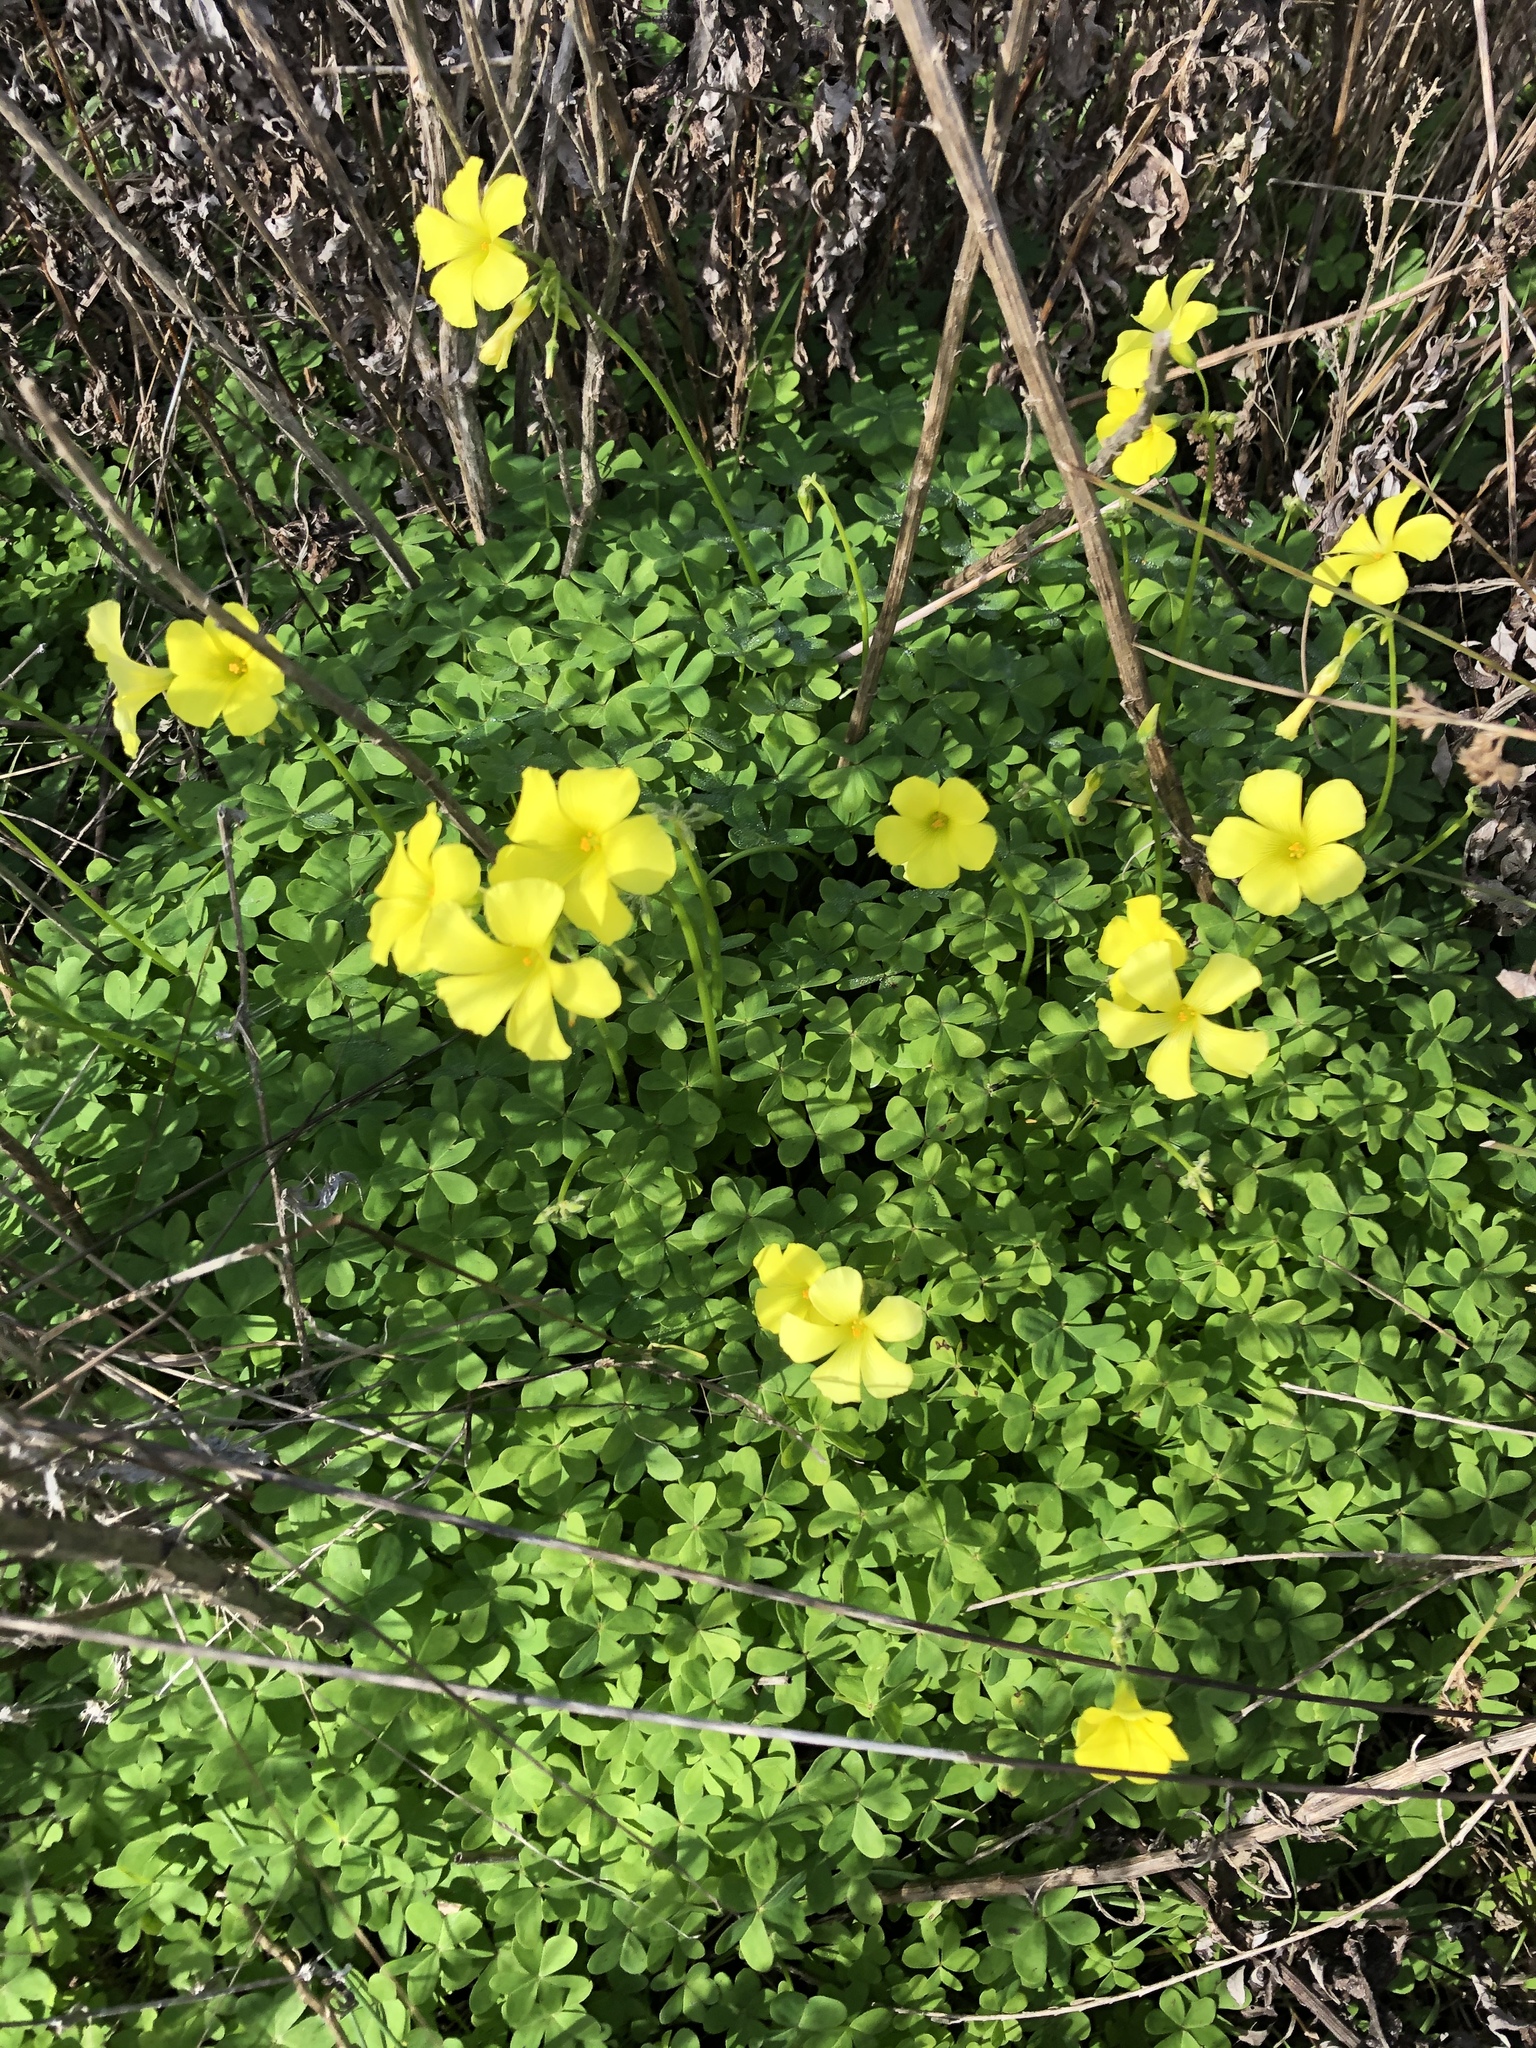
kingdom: Plantae
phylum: Tracheophyta
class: Magnoliopsida
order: Oxalidales
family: Oxalidaceae
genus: Oxalis
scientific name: Oxalis pes-caprae
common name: Bermuda-buttercup
